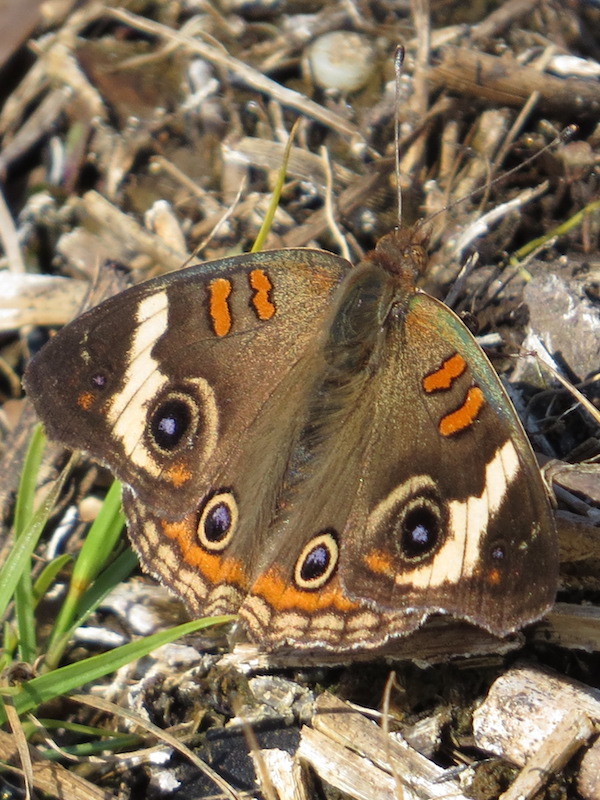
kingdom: Animalia
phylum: Arthropoda
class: Insecta
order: Lepidoptera
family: Nymphalidae
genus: Junonia
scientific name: Junonia coenia
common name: Common buckeye
